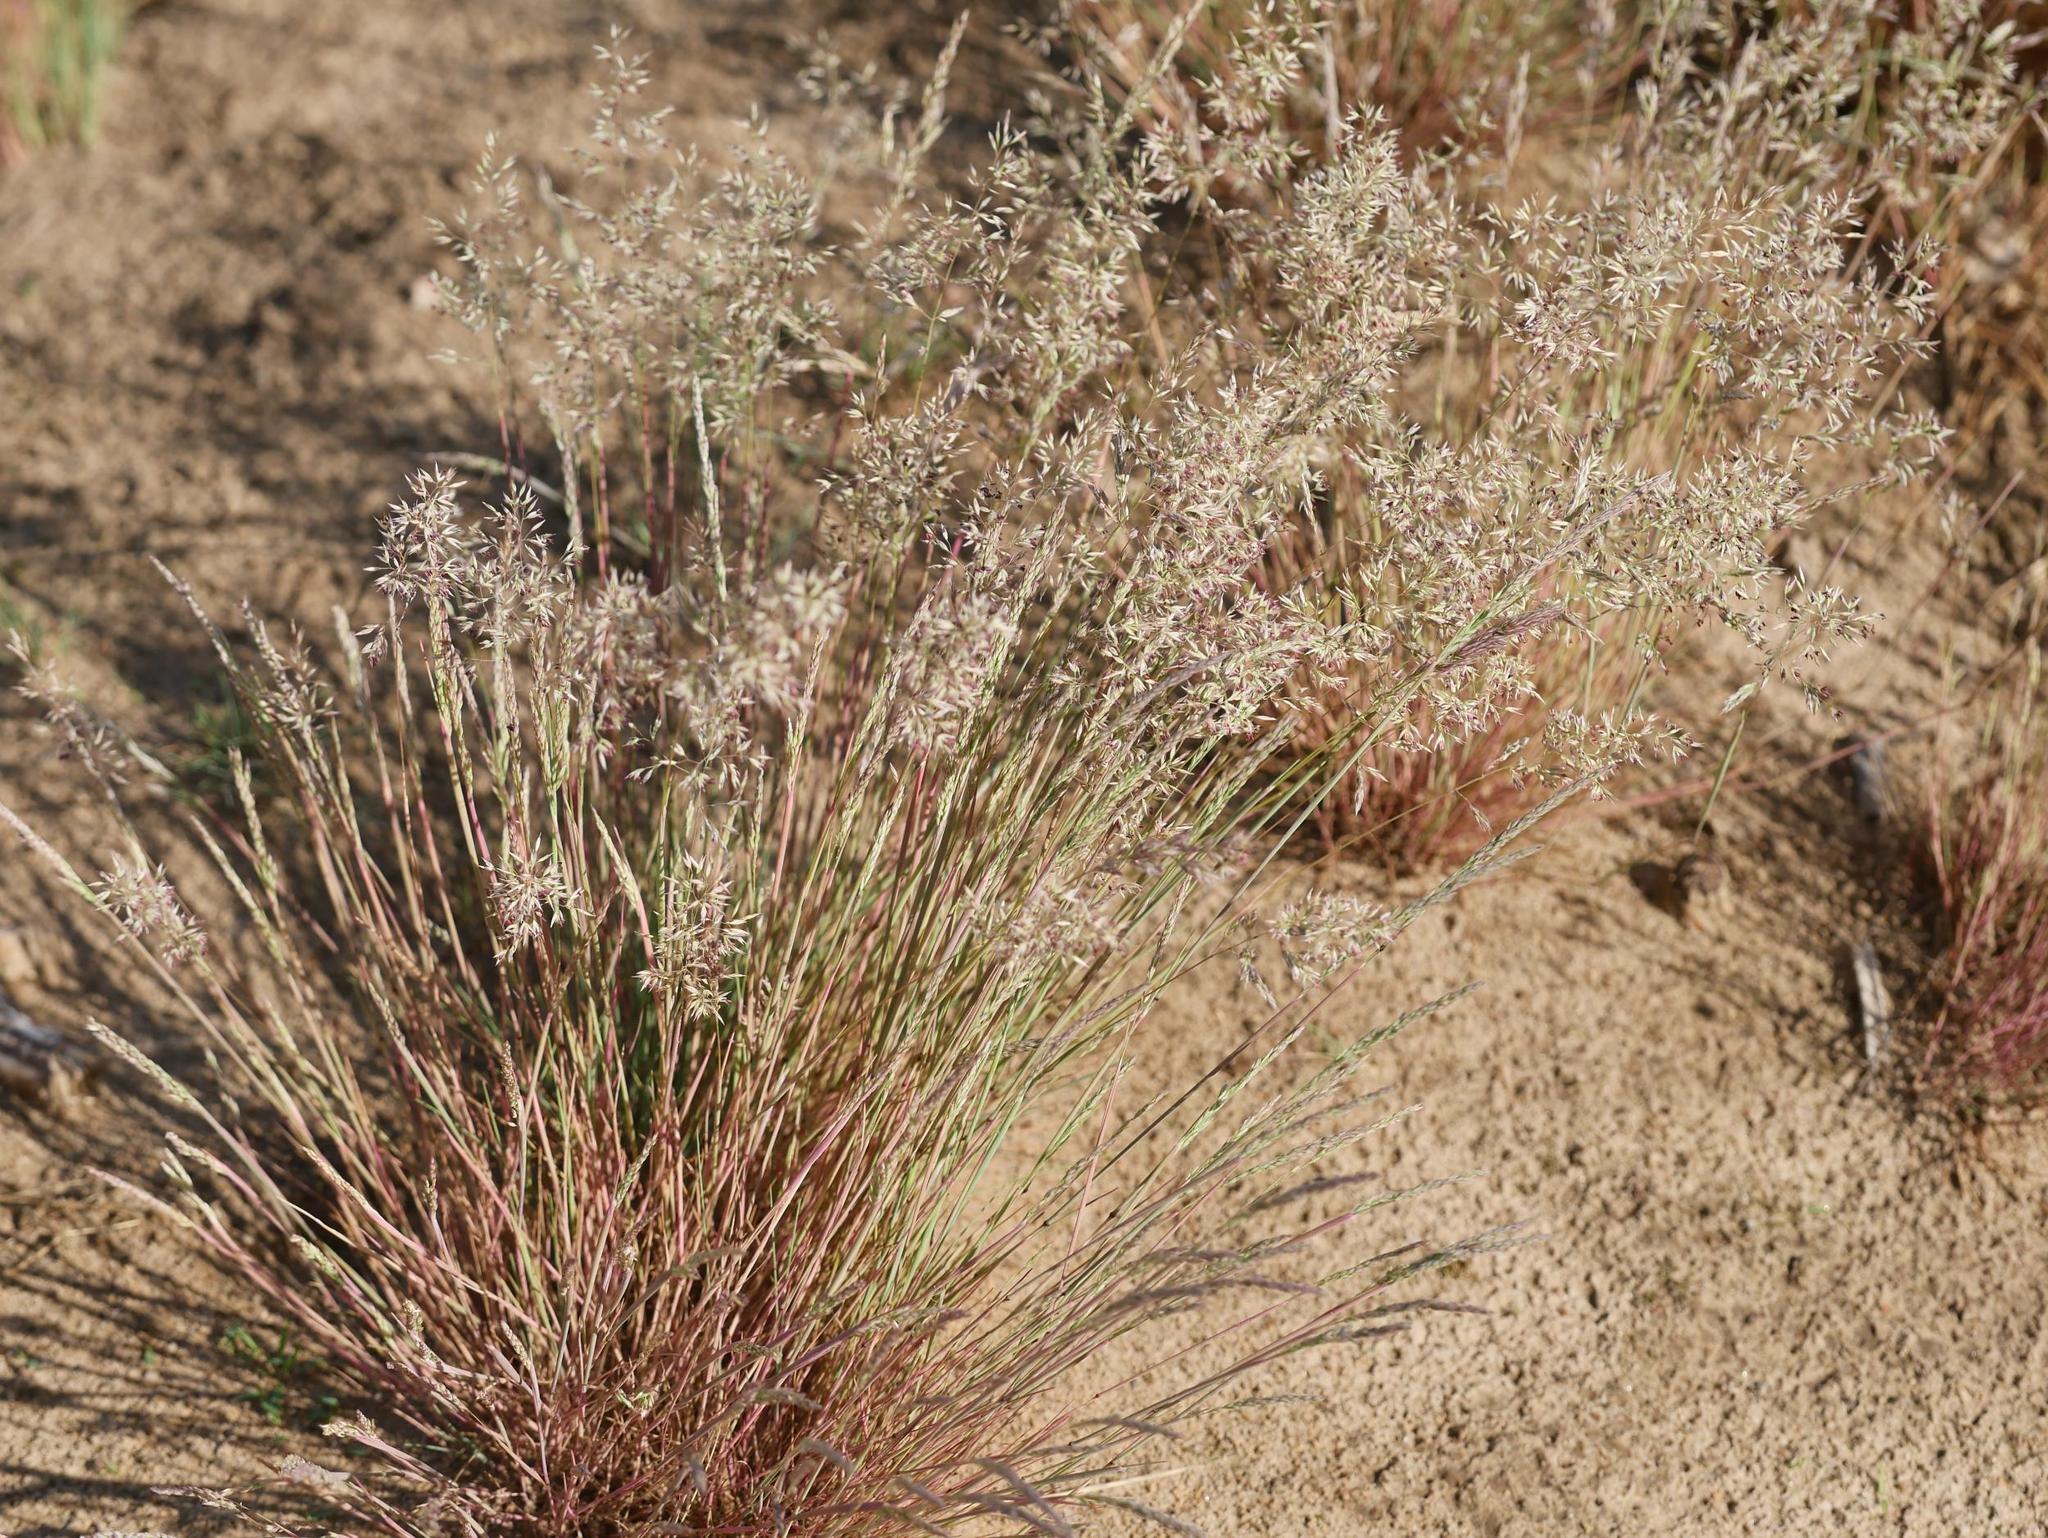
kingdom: Plantae
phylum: Tracheophyta
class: Liliopsida
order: Poales
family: Poaceae
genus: Corynephorus
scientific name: Corynephorus canescens
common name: Grey hair-grass
